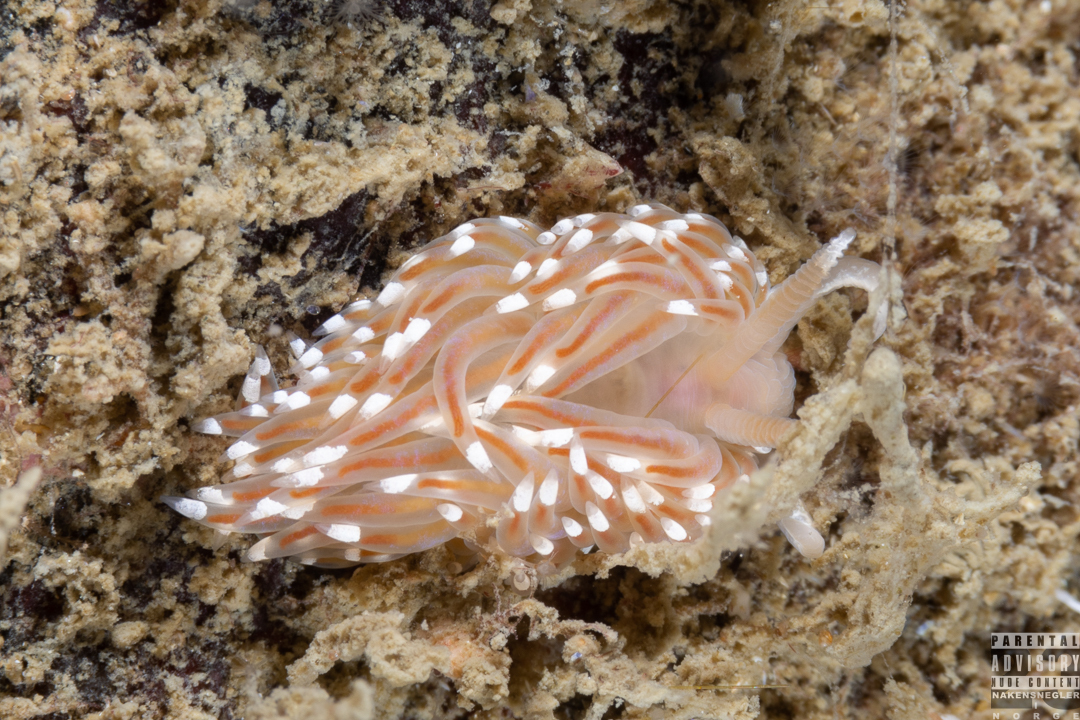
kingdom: Animalia
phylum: Mollusca
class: Gastropoda
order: Nudibranchia
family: Facelinidae
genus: Facelina
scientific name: Facelina bostoniensis
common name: Boston facelina
